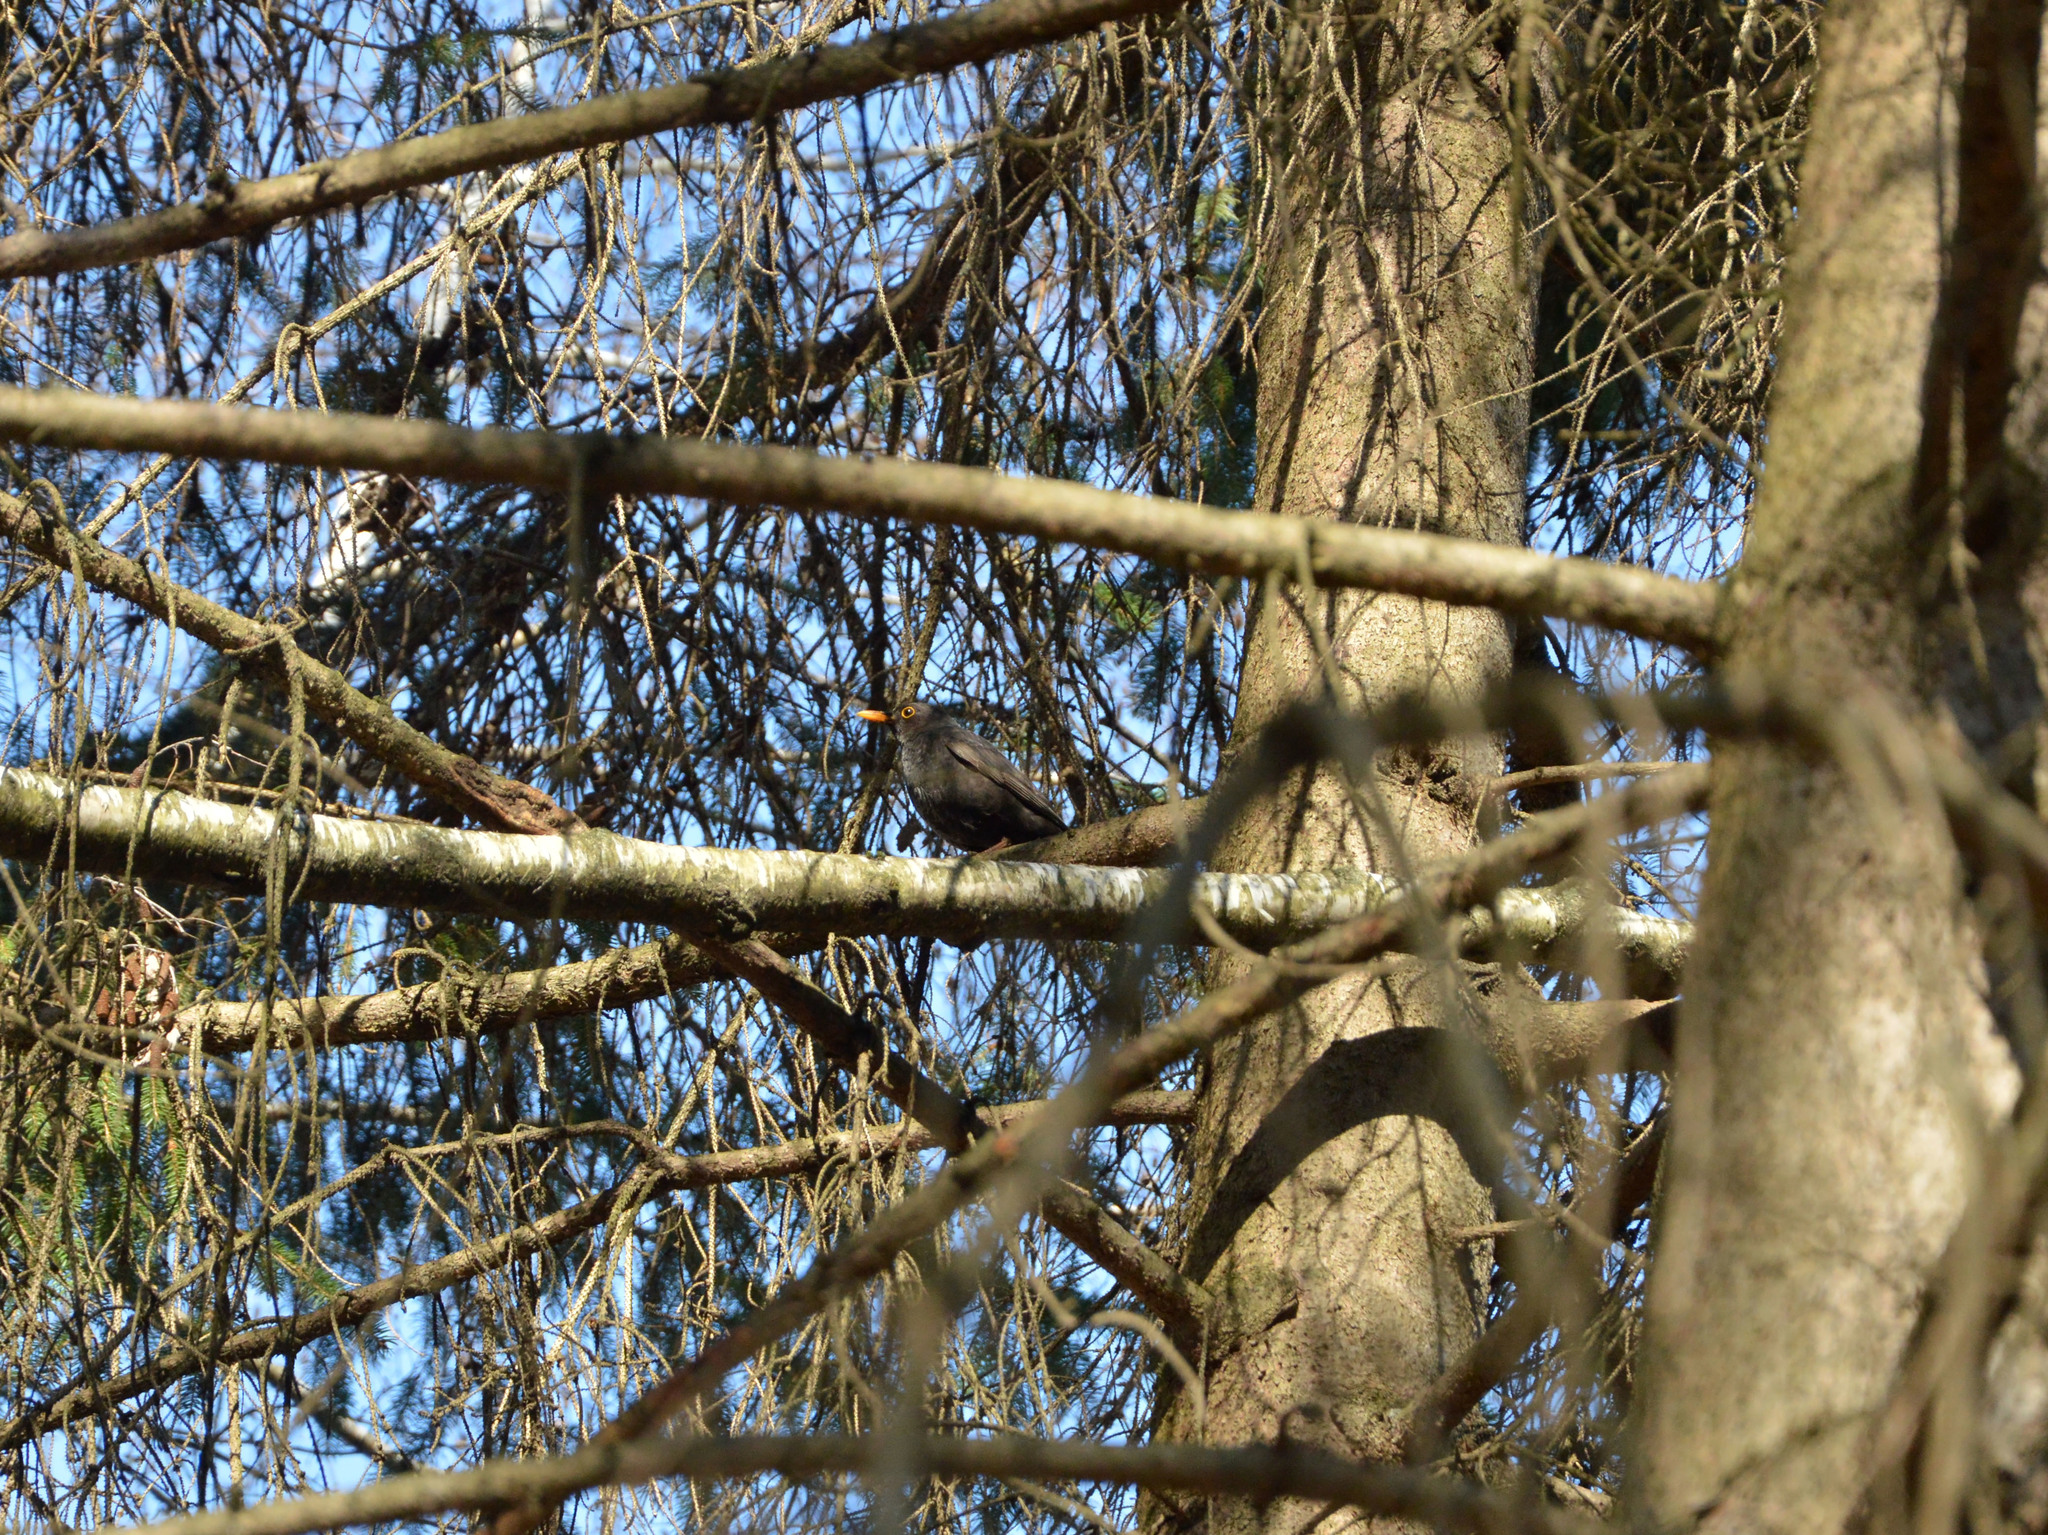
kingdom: Animalia
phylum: Chordata
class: Aves
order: Passeriformes
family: Turdidae
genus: Turdus
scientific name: Turdus merula
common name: Common blackbird
